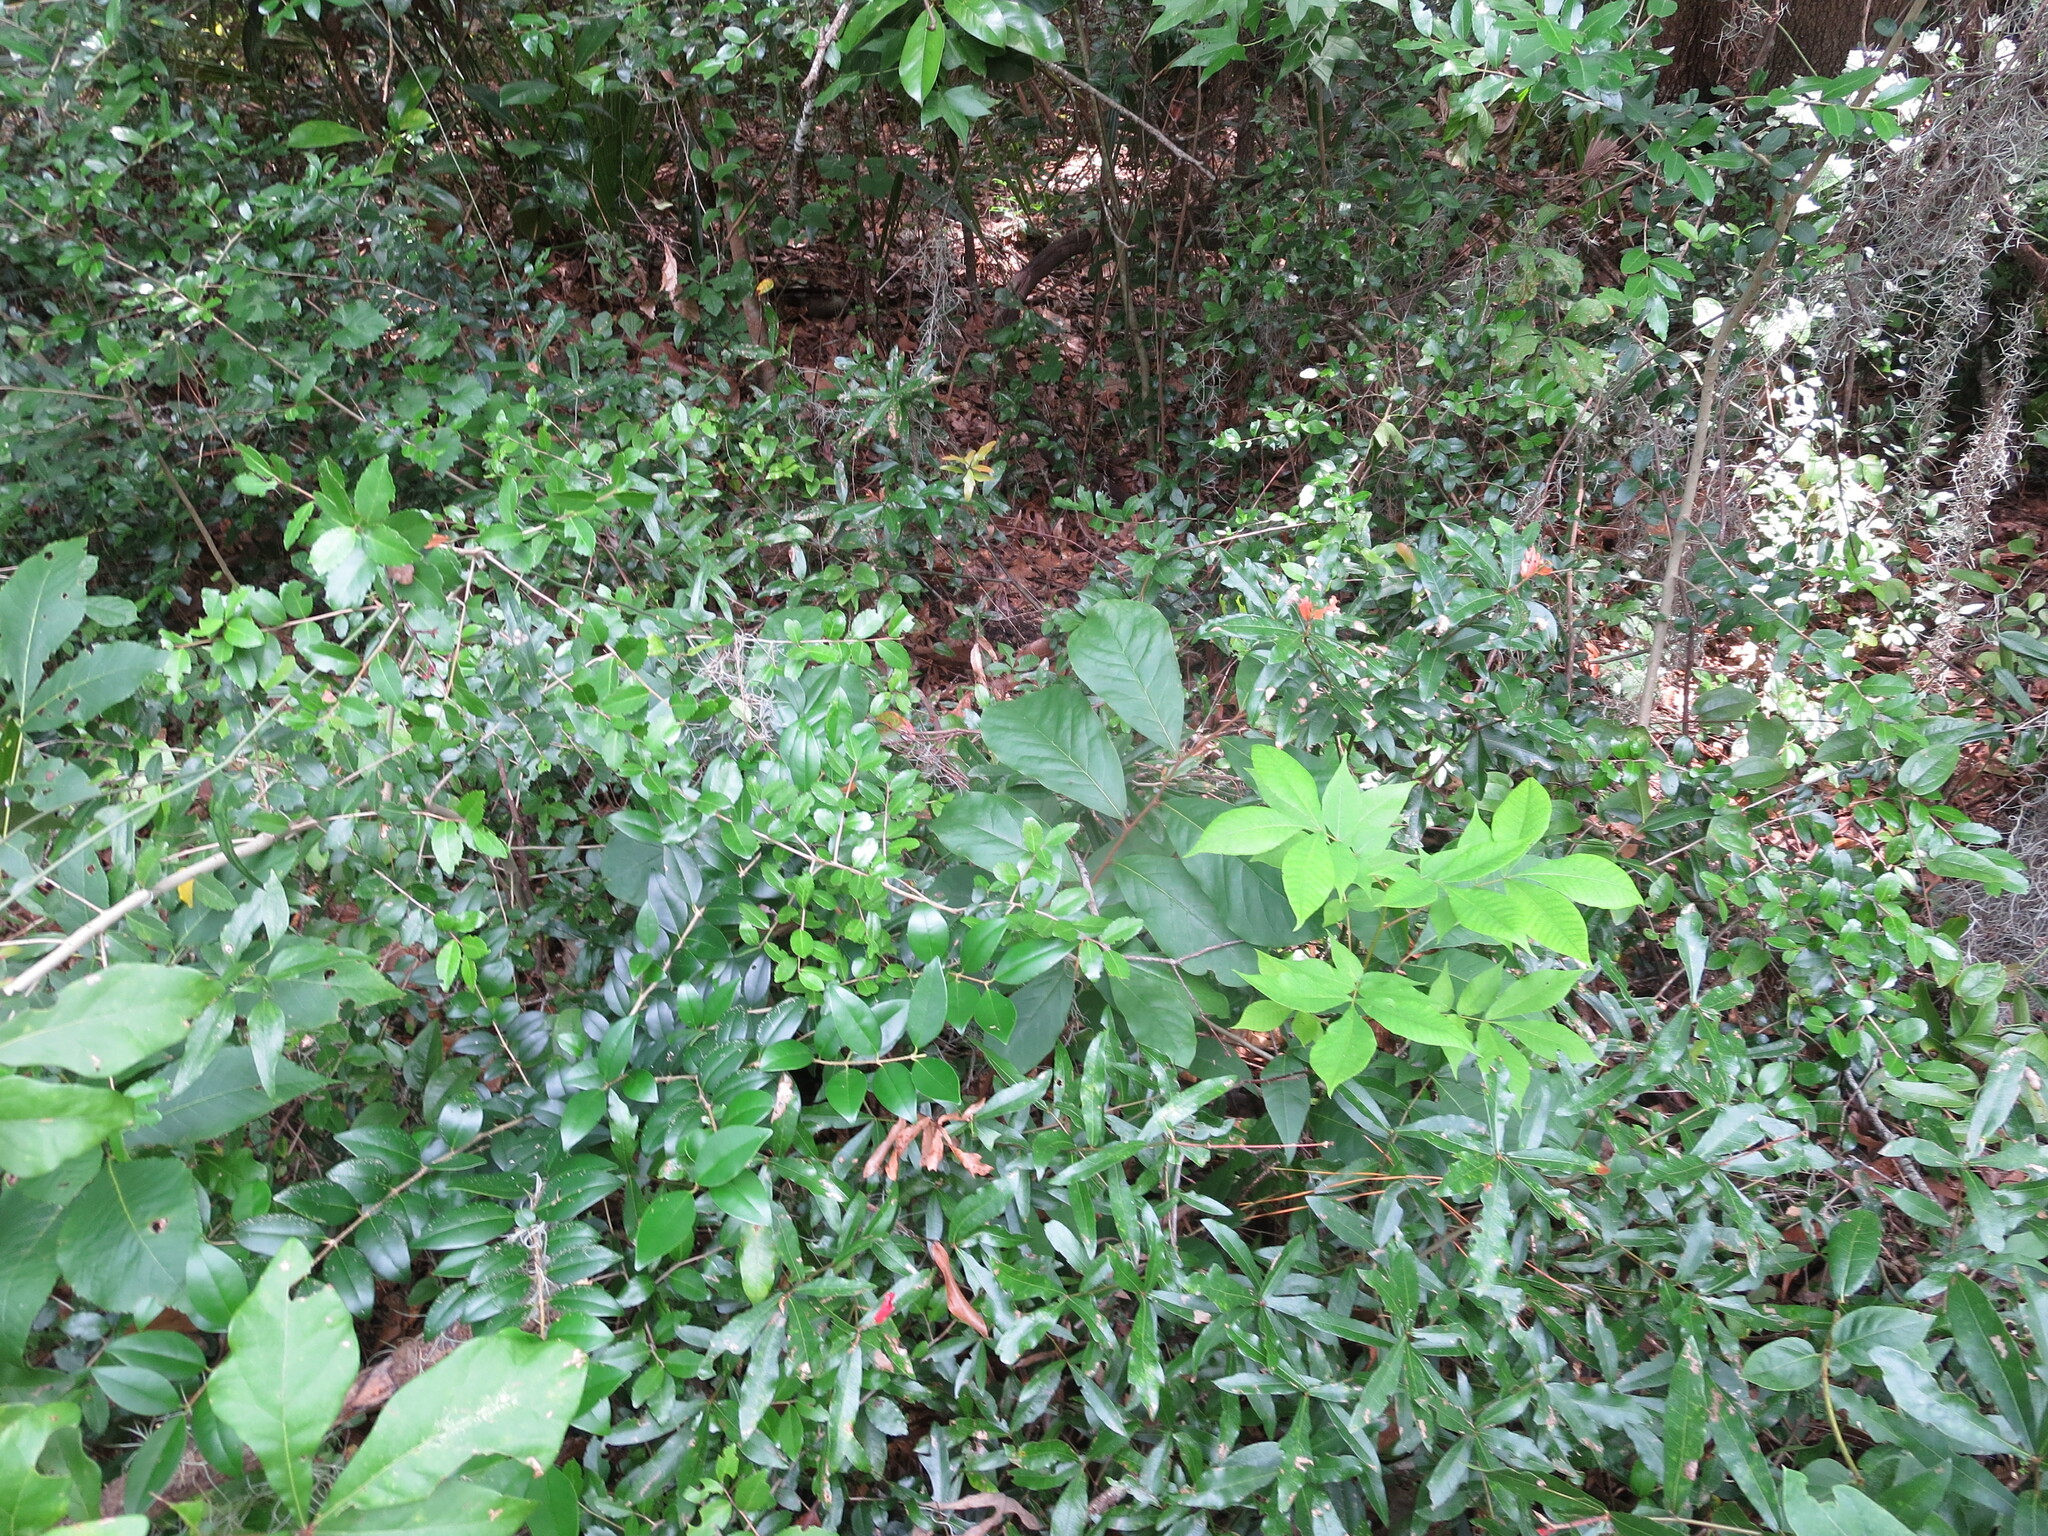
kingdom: Plantae
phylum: Tracheophyta
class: Magnoliopsida
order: Magnoliales
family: Annonaceae
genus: Asimina
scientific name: Asimina parviflora
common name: Dwarf pawpaw
